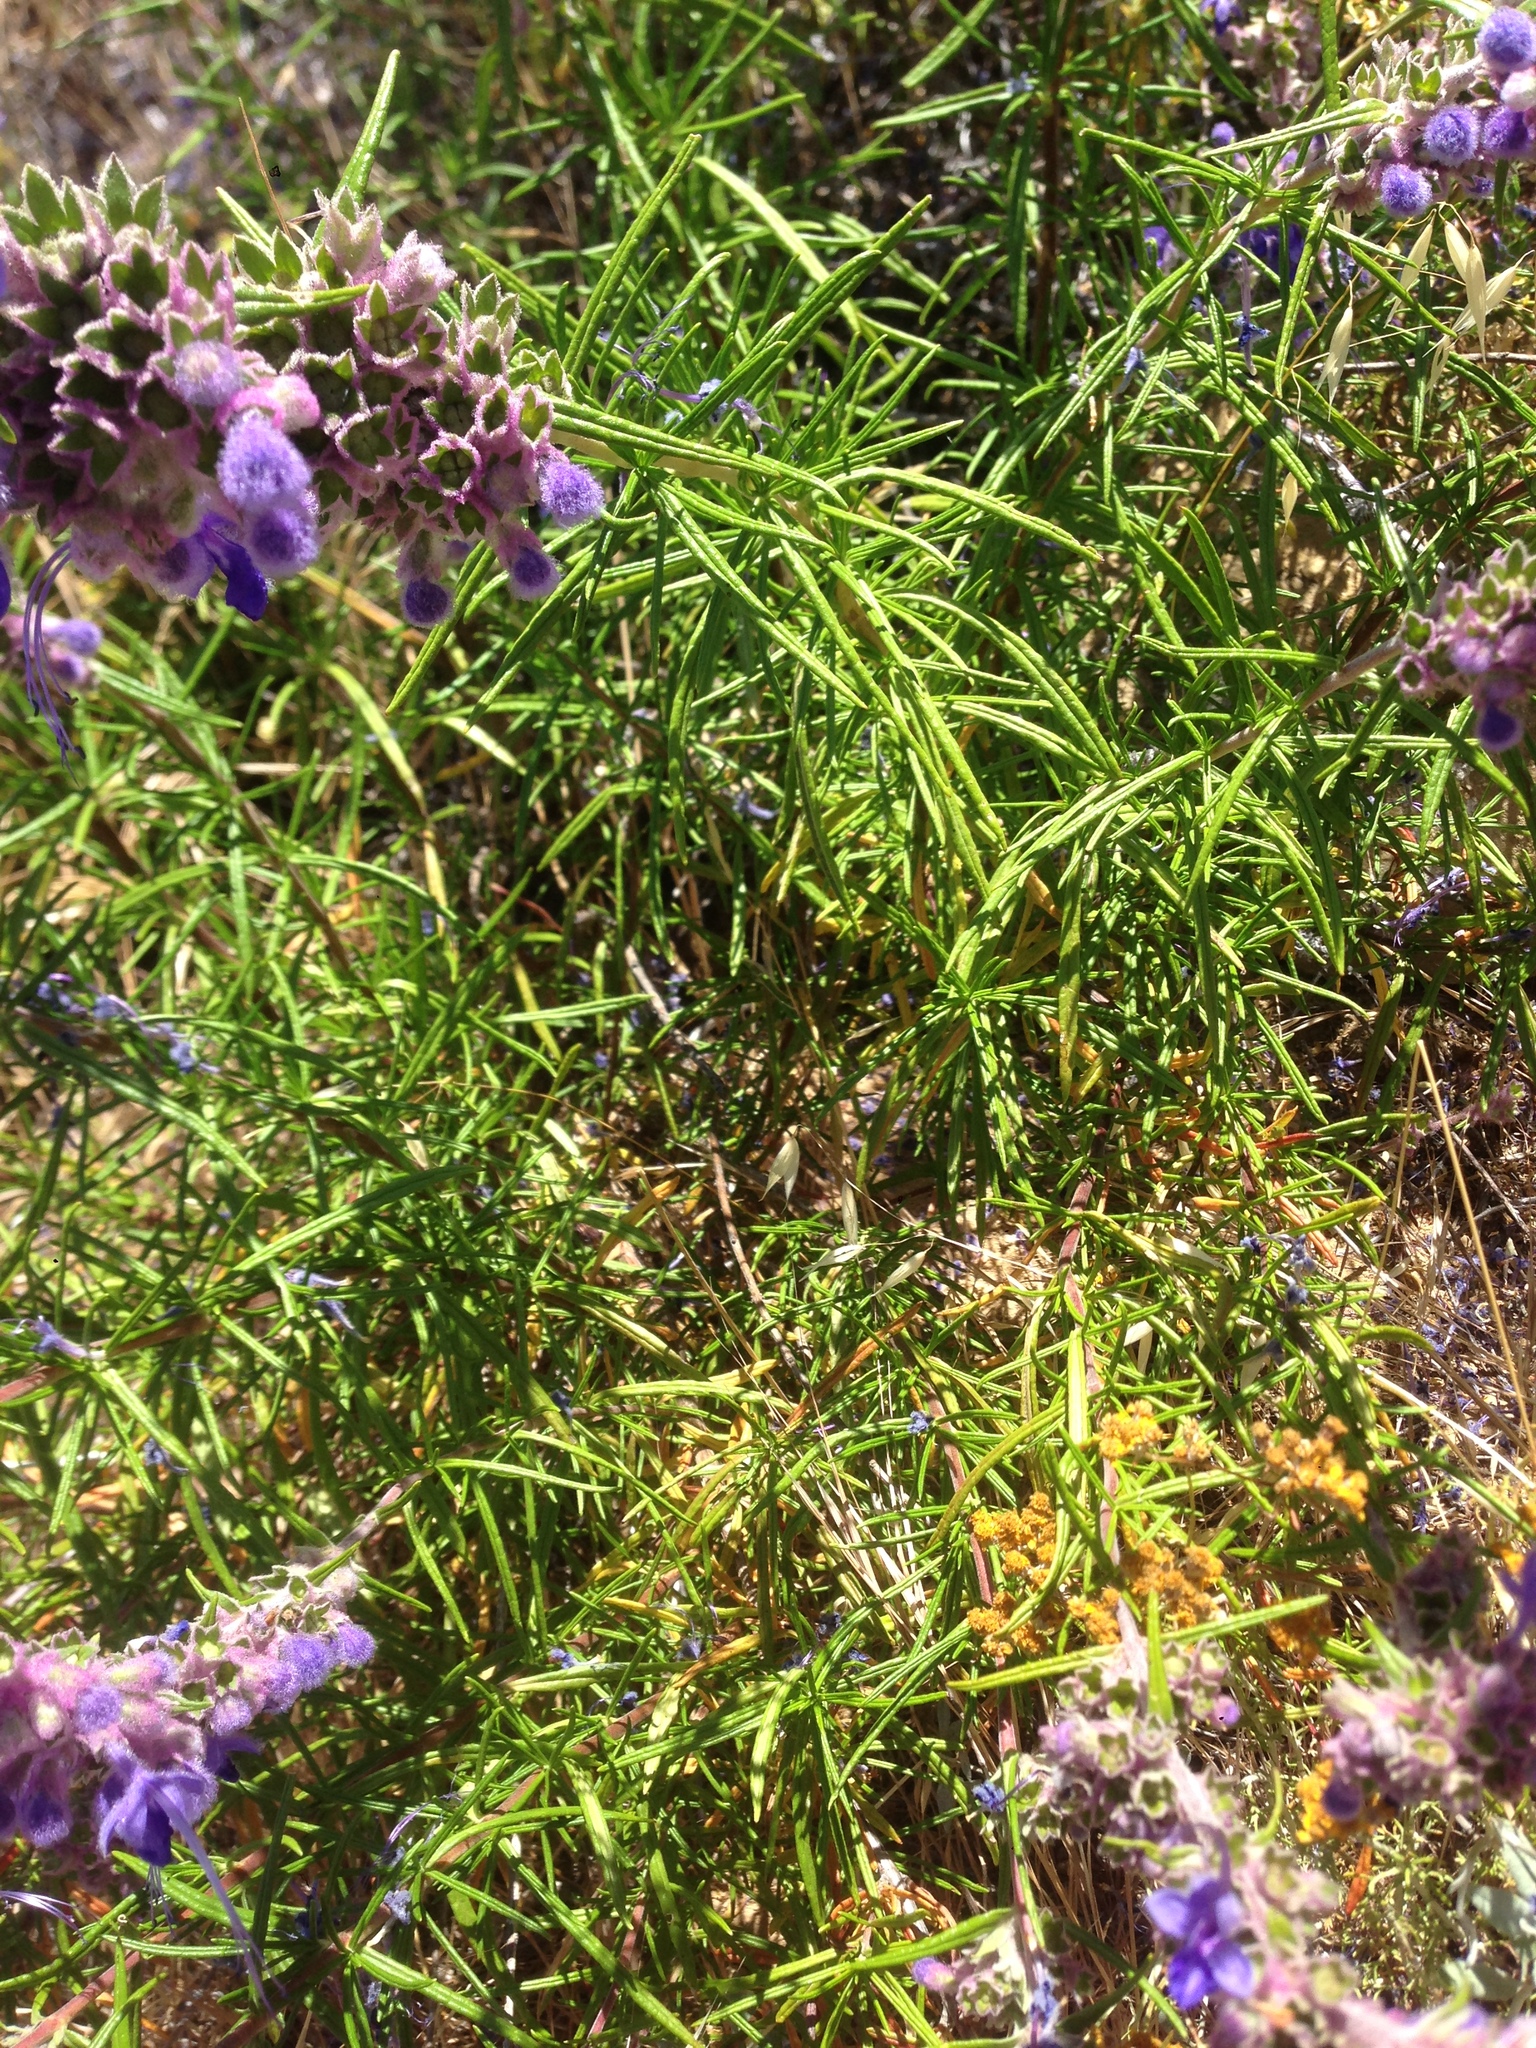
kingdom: Plantae
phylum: Tracheophyta
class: Magnoliopsida
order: Lamiales
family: Lamiaceae
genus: Trichostema
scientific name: Trichostema lanatum
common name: Woolly bluecurls
